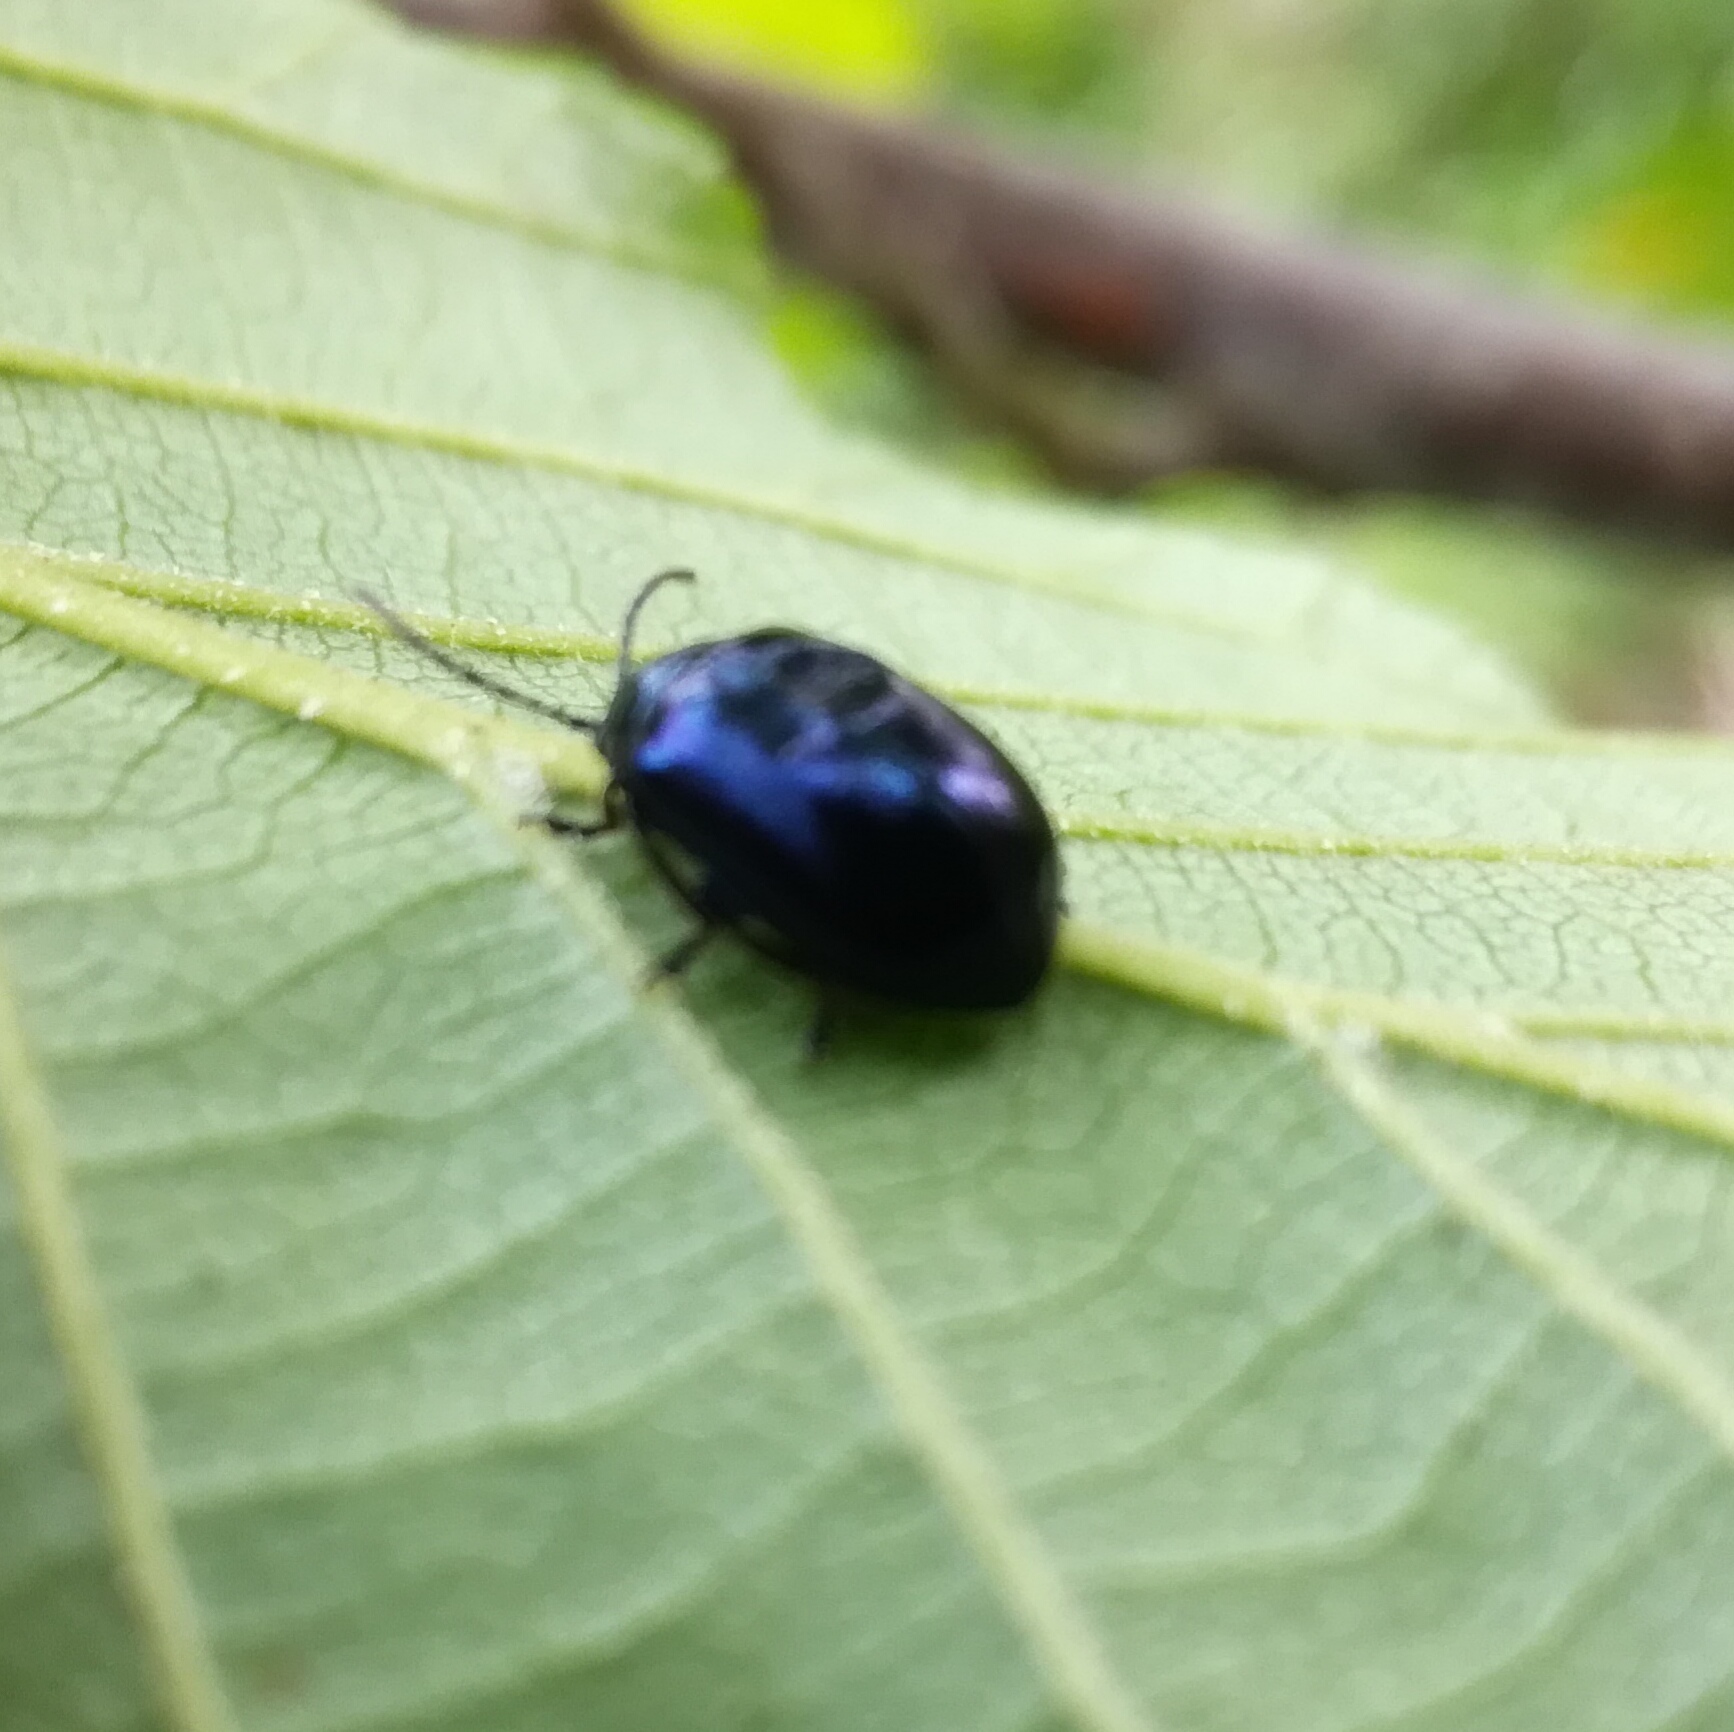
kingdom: Animalia
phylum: Arthropoda
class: Insecta
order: Coleoptera
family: Chrysomelidae
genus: Agelastica
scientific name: Agelastica alni
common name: Alder leaf beetle
